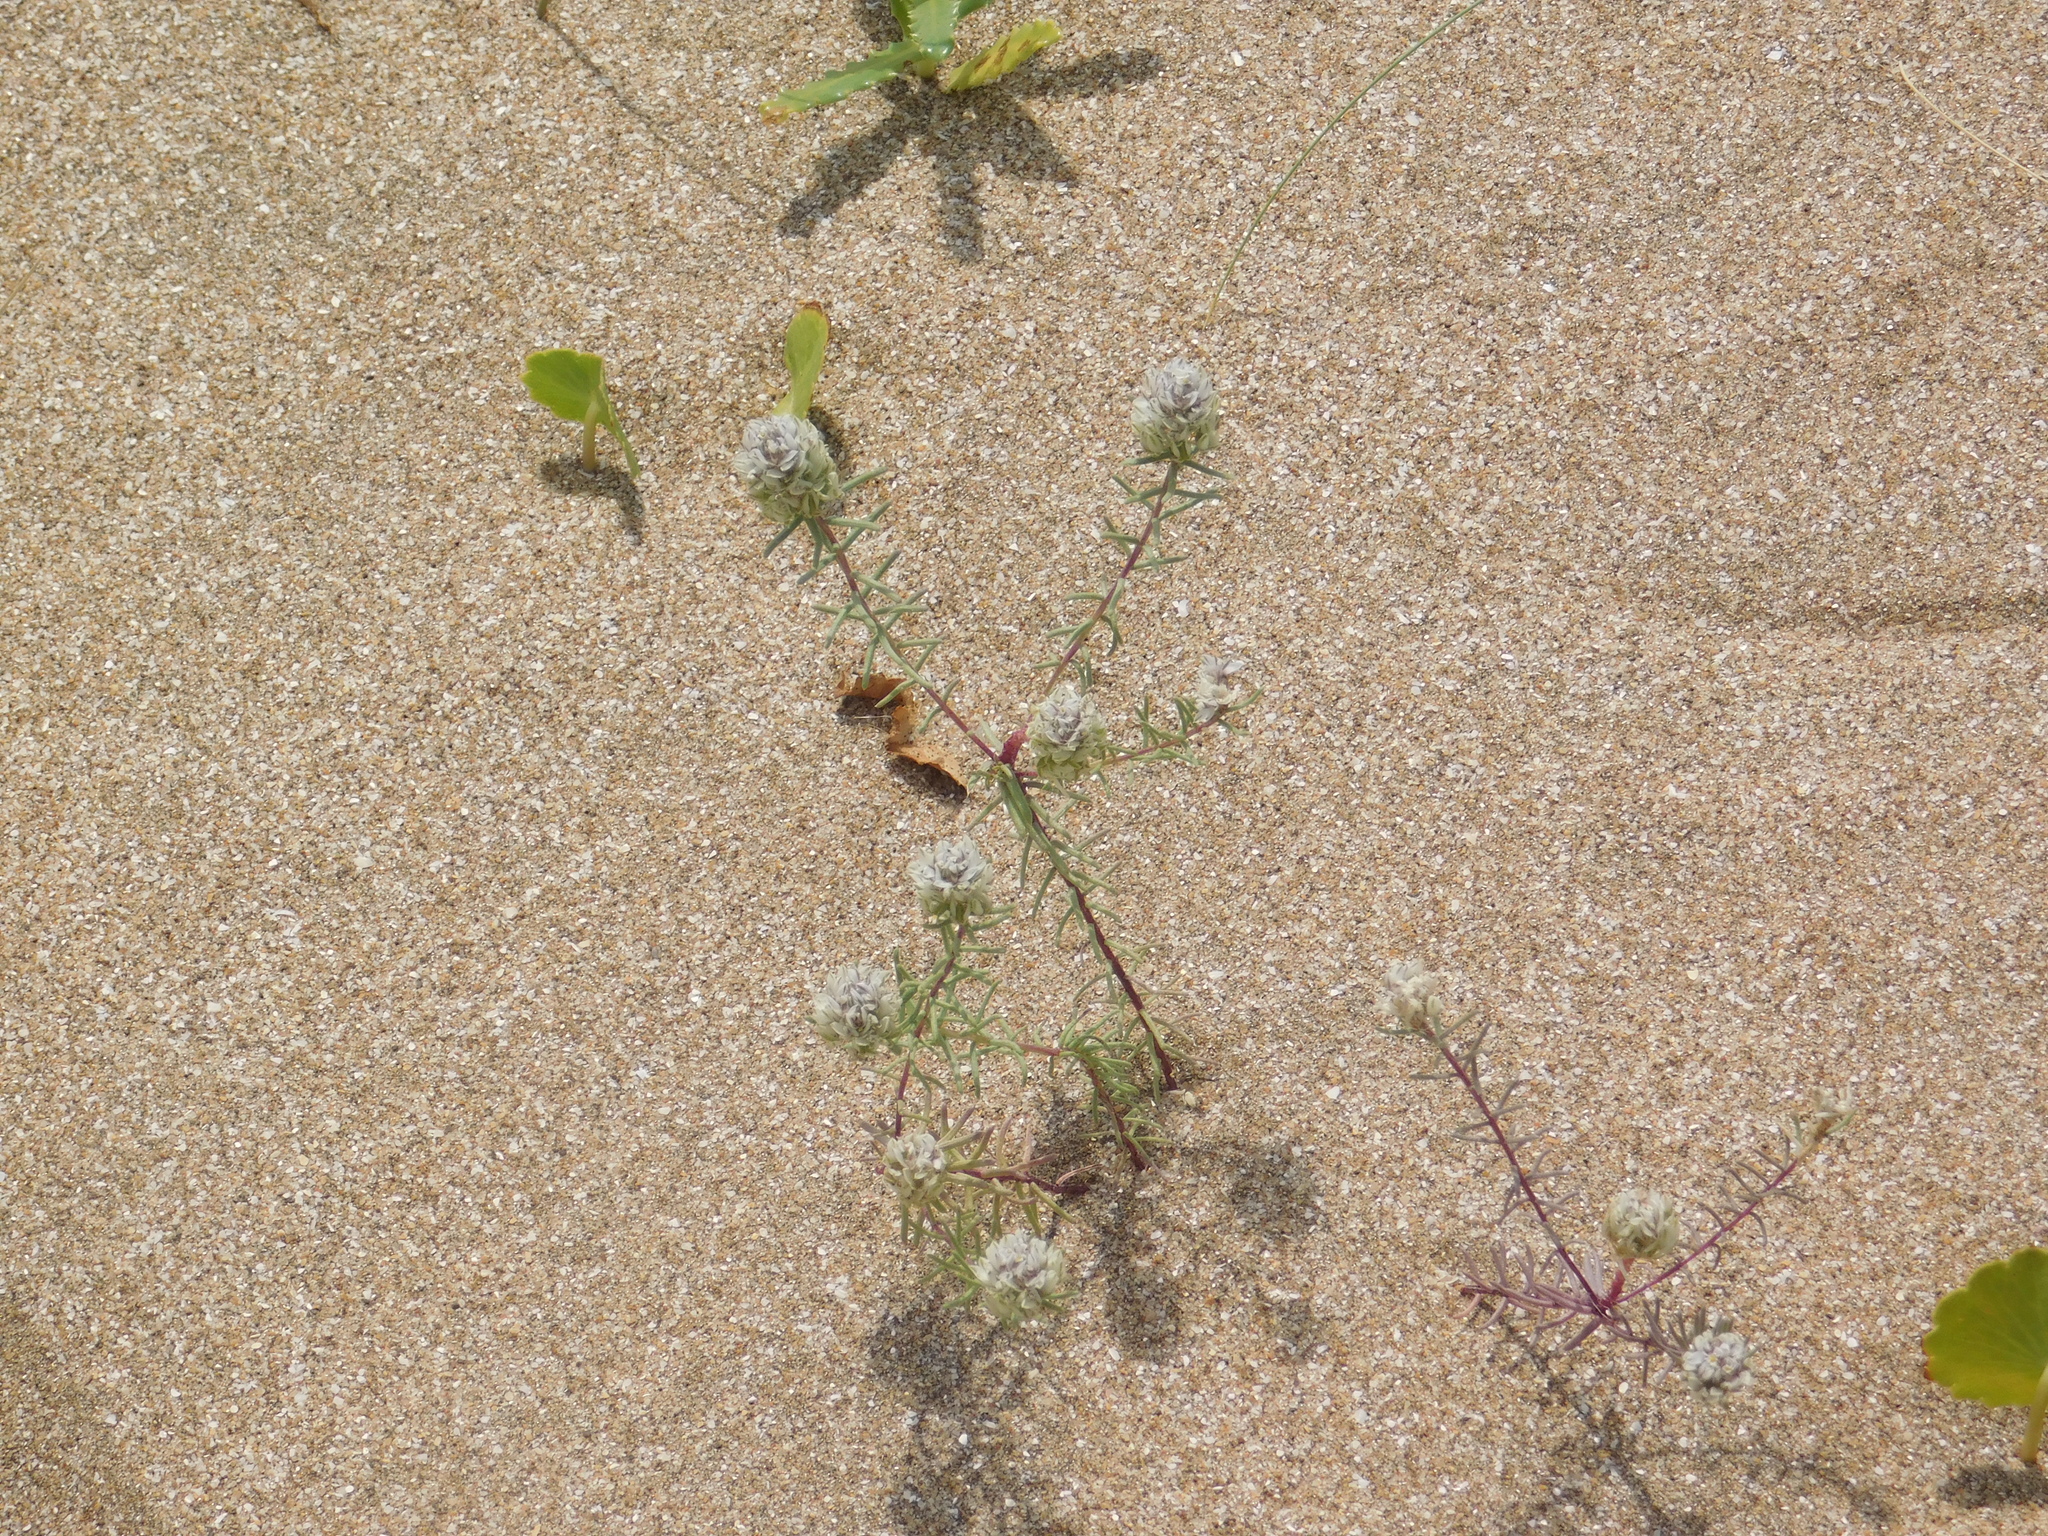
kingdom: Plantae
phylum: Tracheophyta
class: Magnoliopsida
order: Fabales
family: Polygalaceae
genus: Polygala
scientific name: Polygala cyparissias
